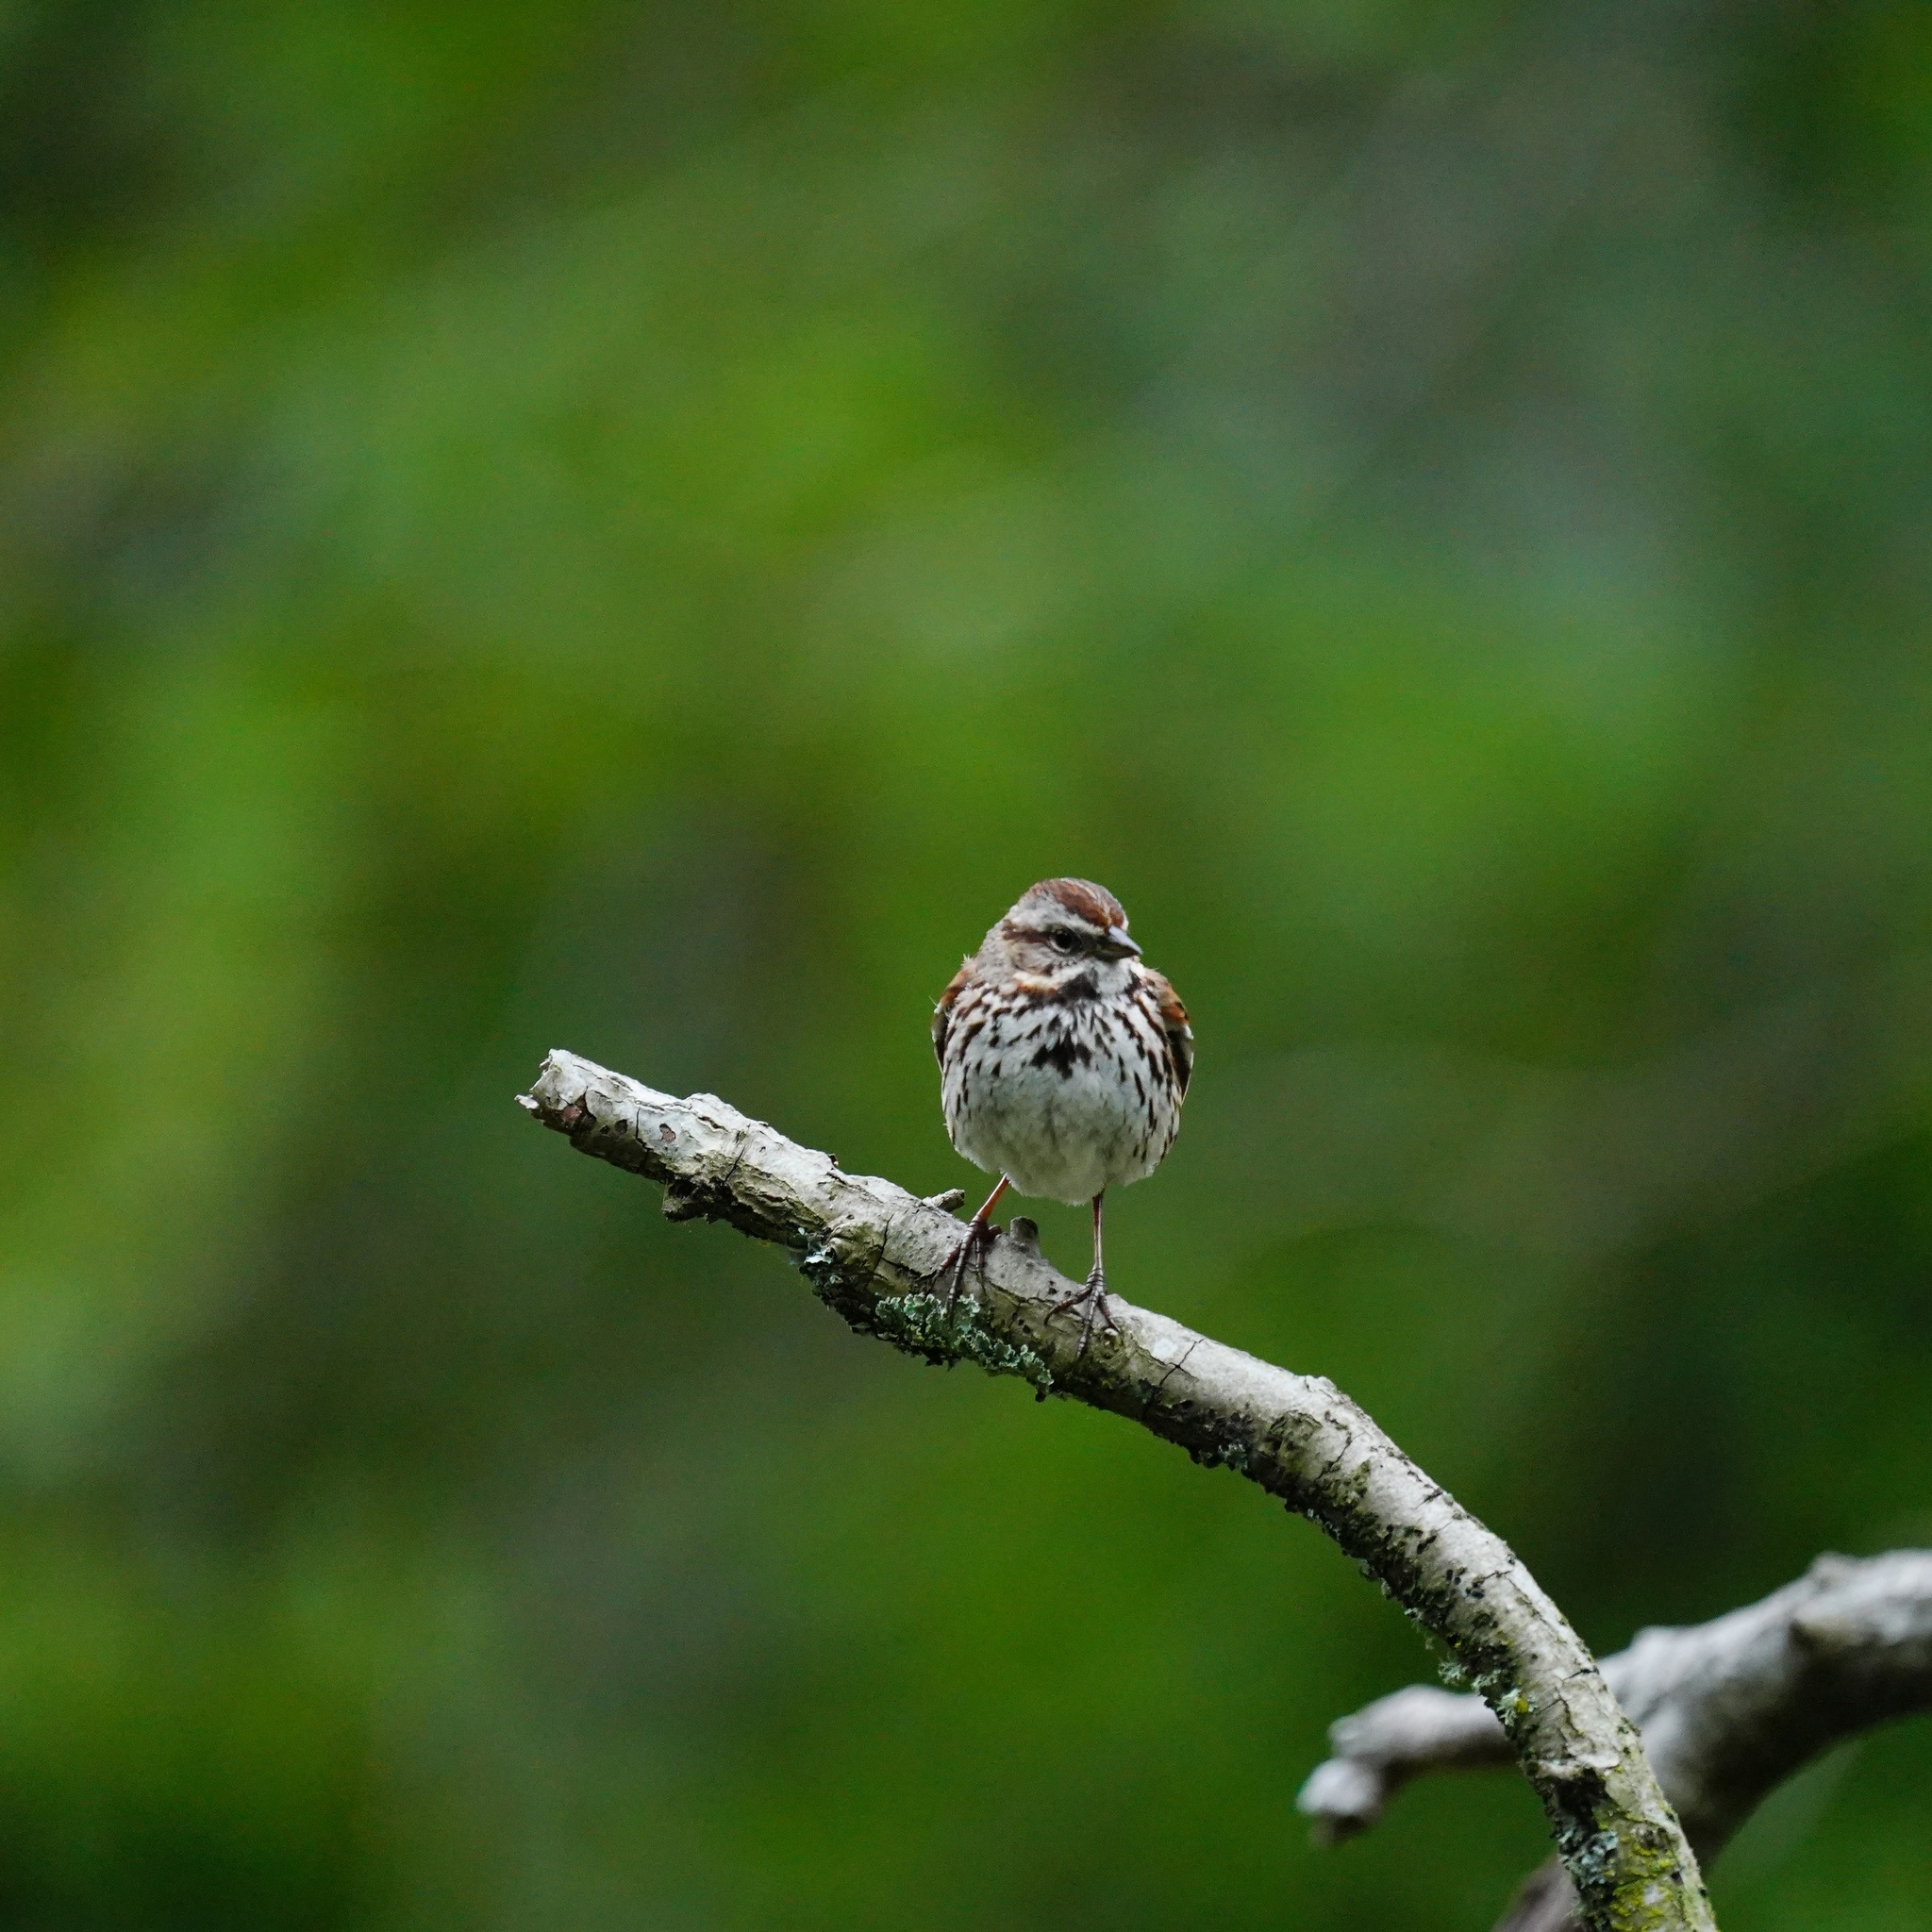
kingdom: Animalia
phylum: Chordata
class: Aves
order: Passeriformes
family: Passerellidae
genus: Melospiza
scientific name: Melospiza melodia
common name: Song sparrow
